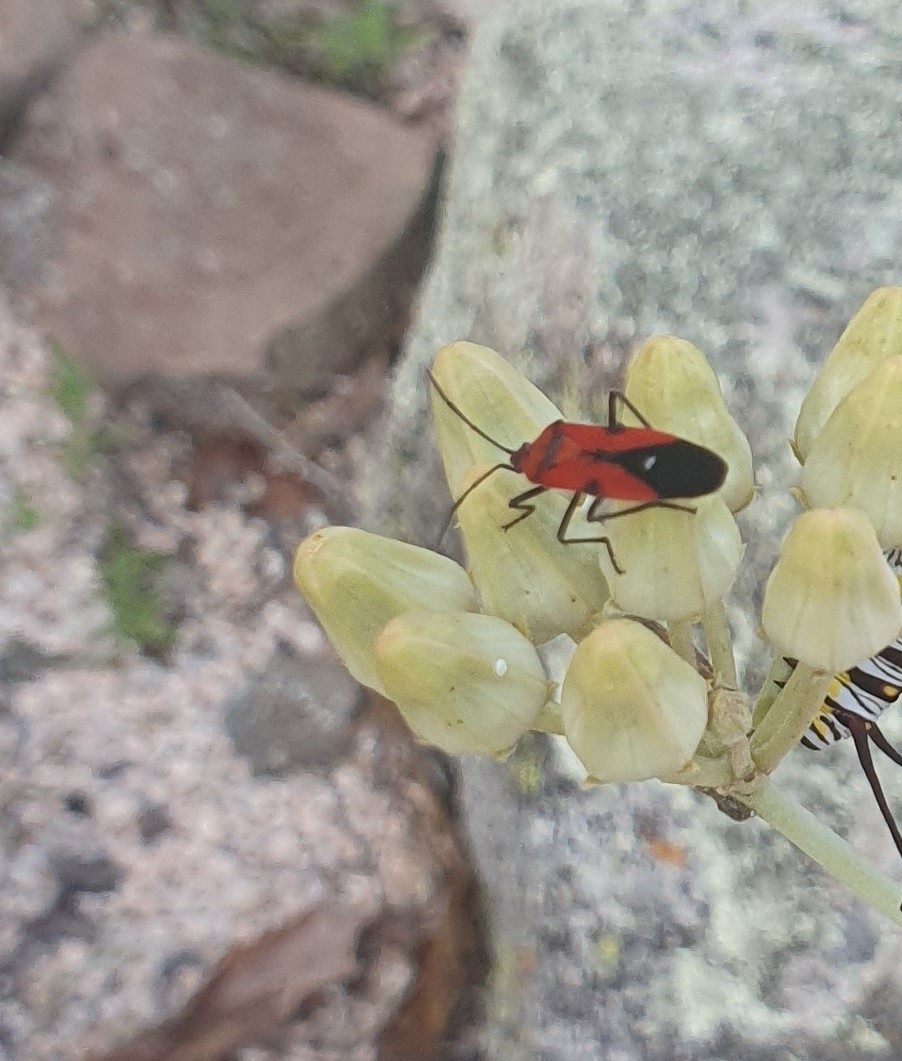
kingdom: Animalia
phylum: Arthropoda
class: Insecta
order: Hemiptera
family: Lygaeidae
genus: Oncopeltus
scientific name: Oncopeltus sanguinolentus
